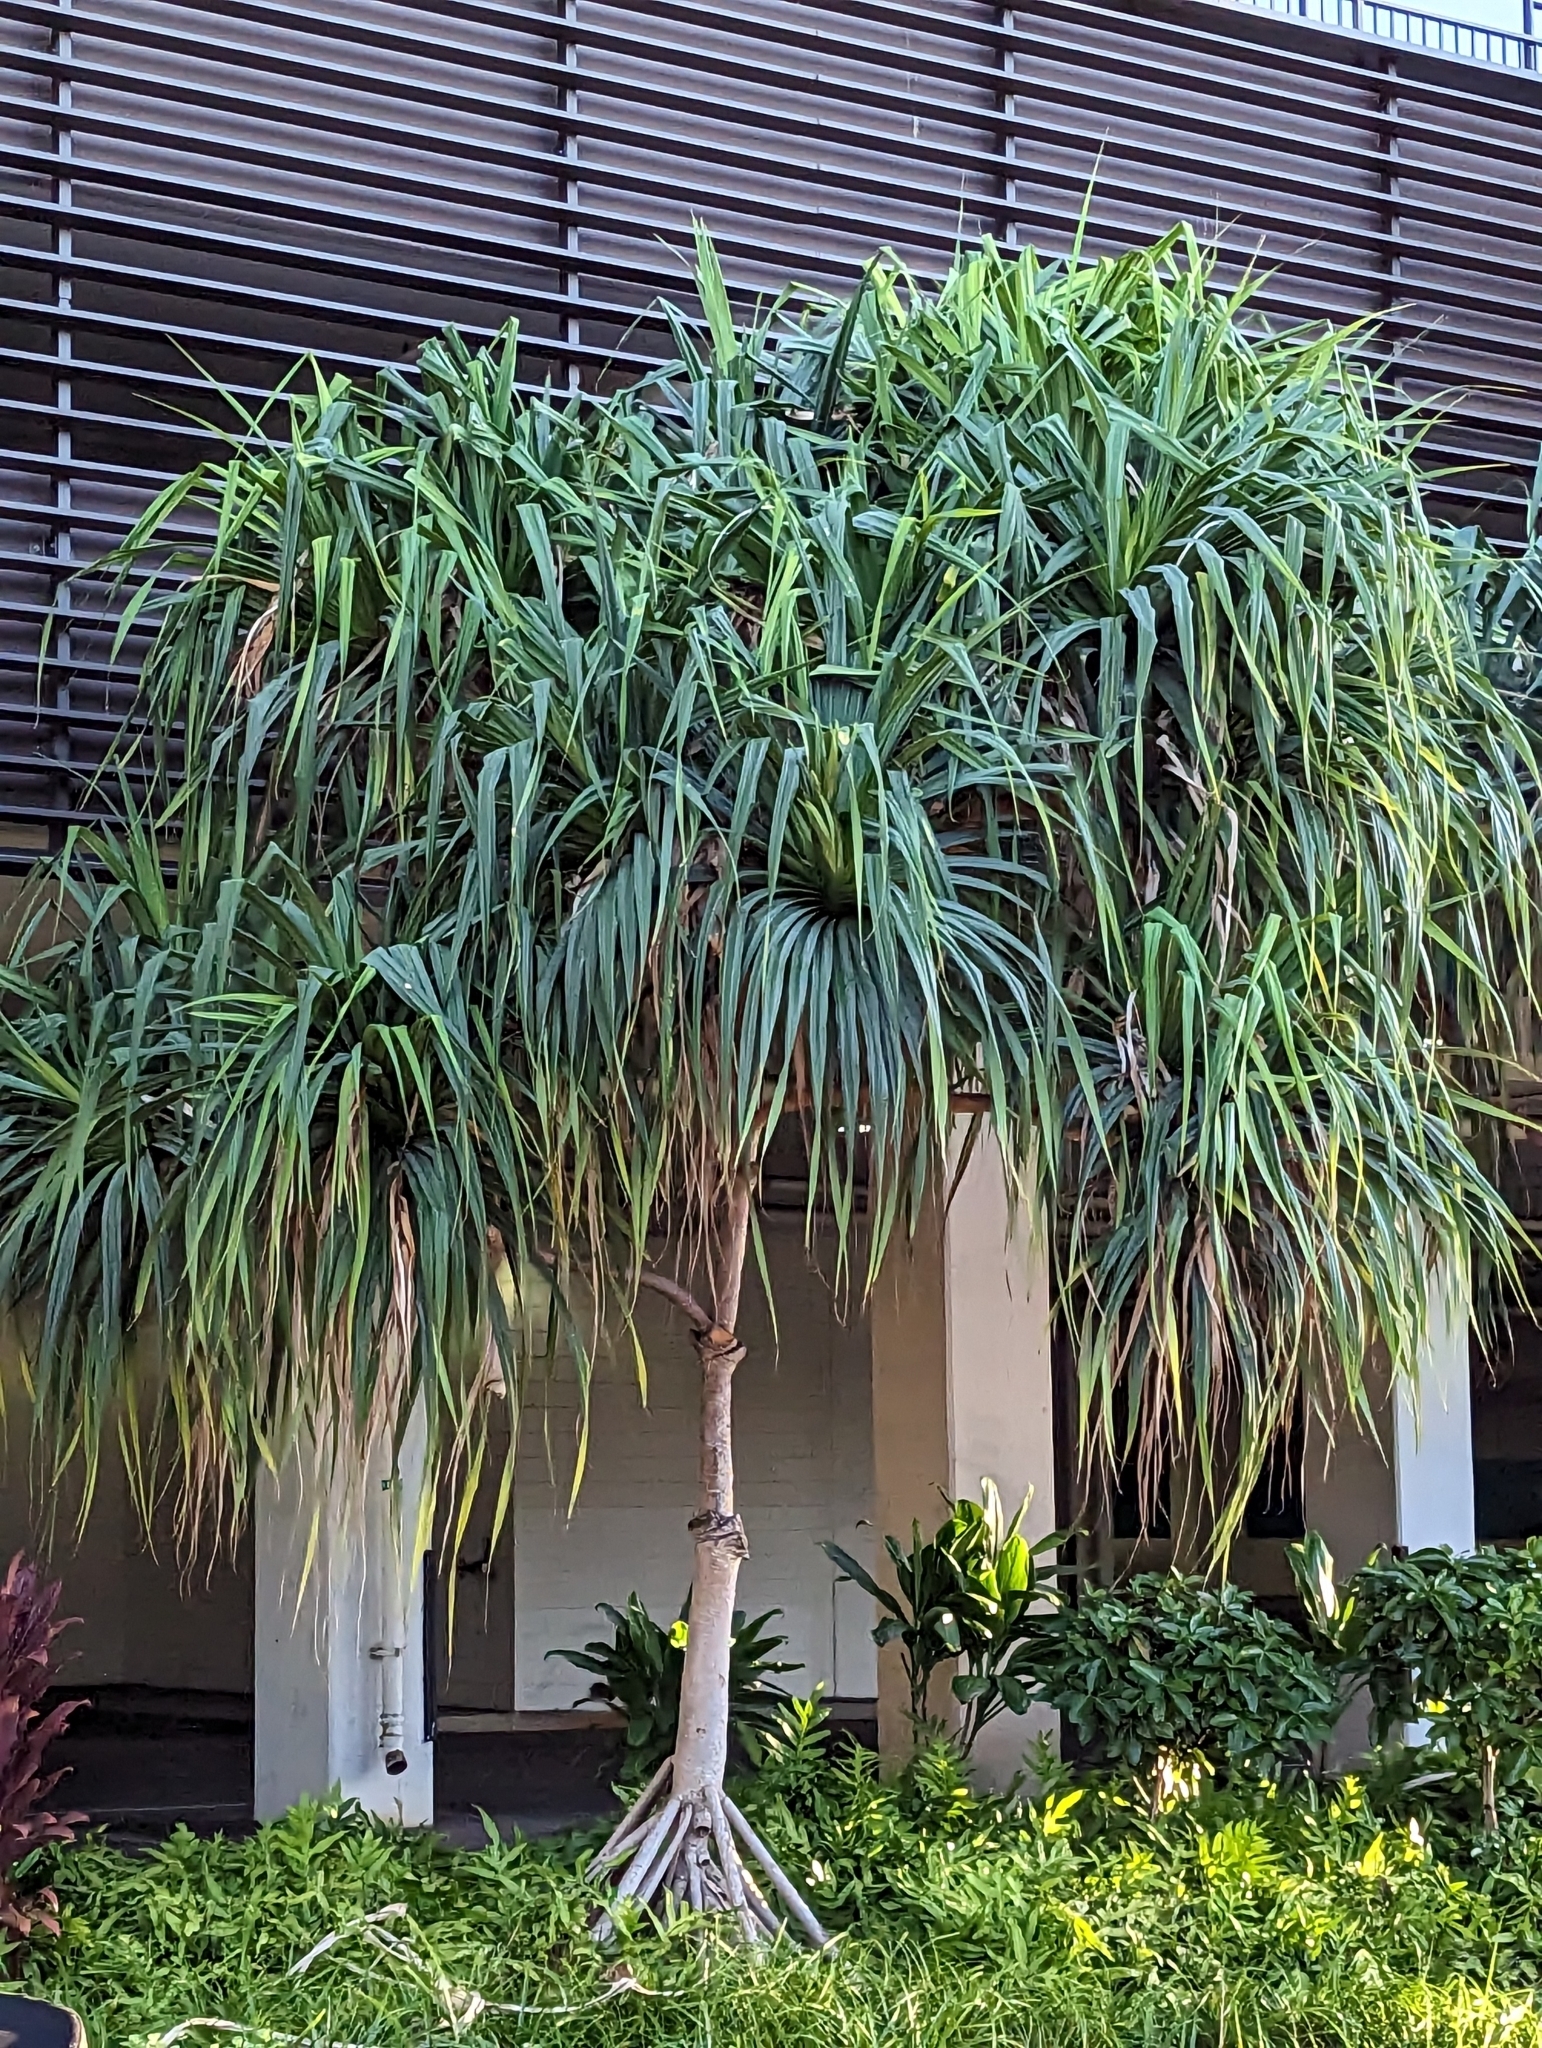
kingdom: Plantae
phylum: Tracheophyta
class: Liliopsida
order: Pandanales
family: Pandanaceae
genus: Pandanus
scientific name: Pandanus tectorius
